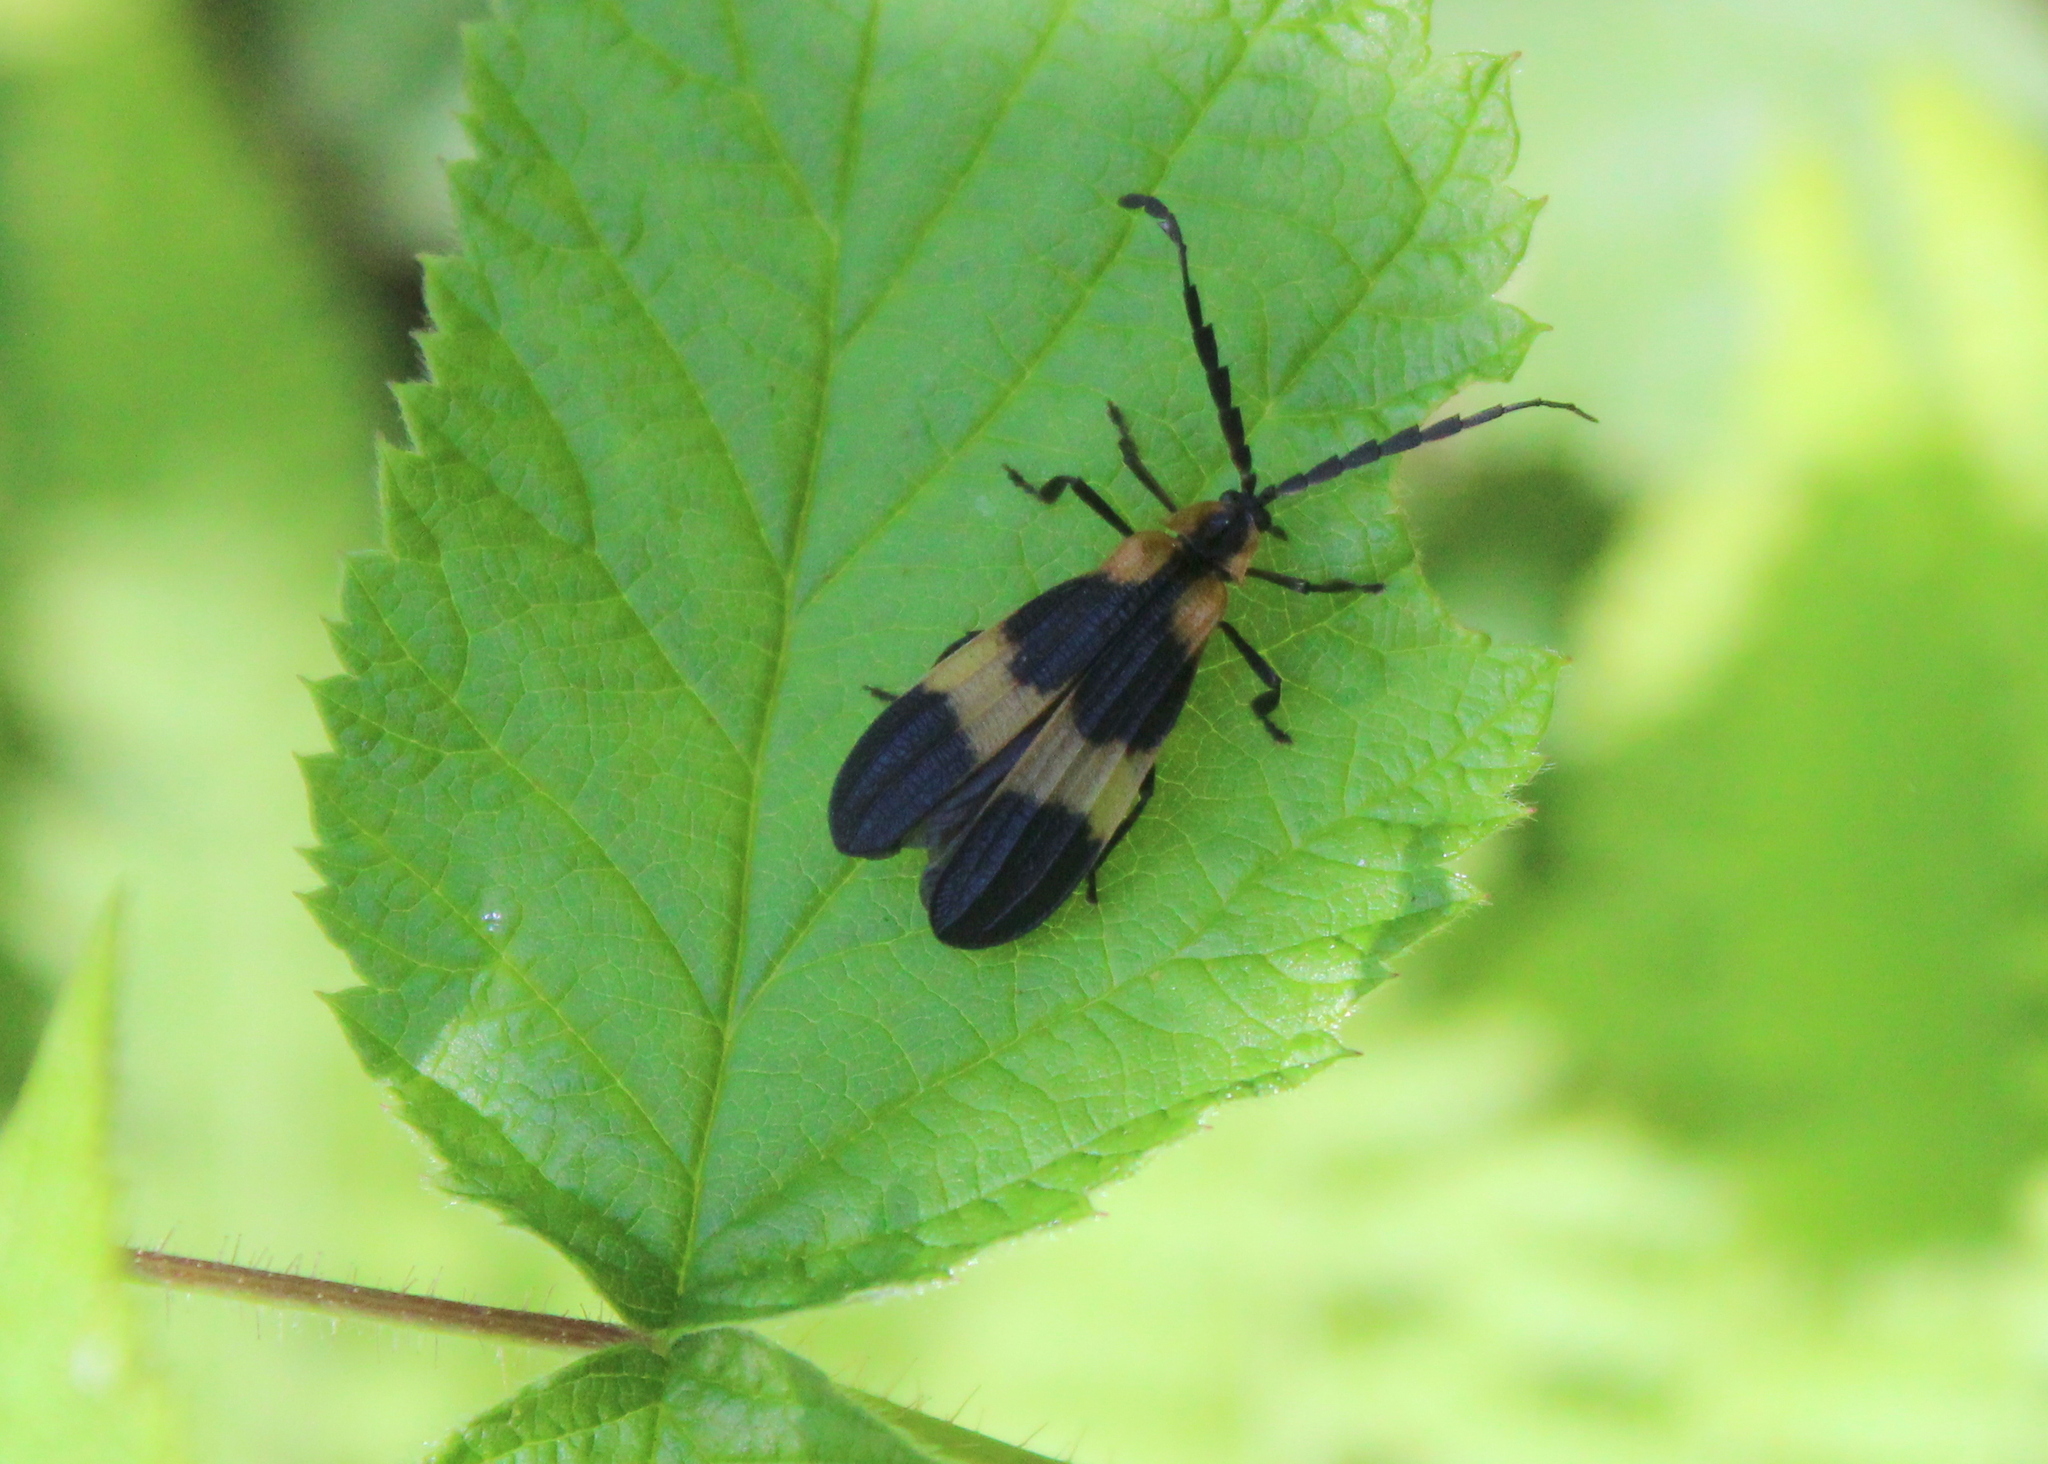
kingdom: Animalia
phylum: Arthropoda
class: Insecta
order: Coleoptera
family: Lycidae
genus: Calopteron
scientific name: Calopteron reticulatum
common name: Banded net-winged beetle
